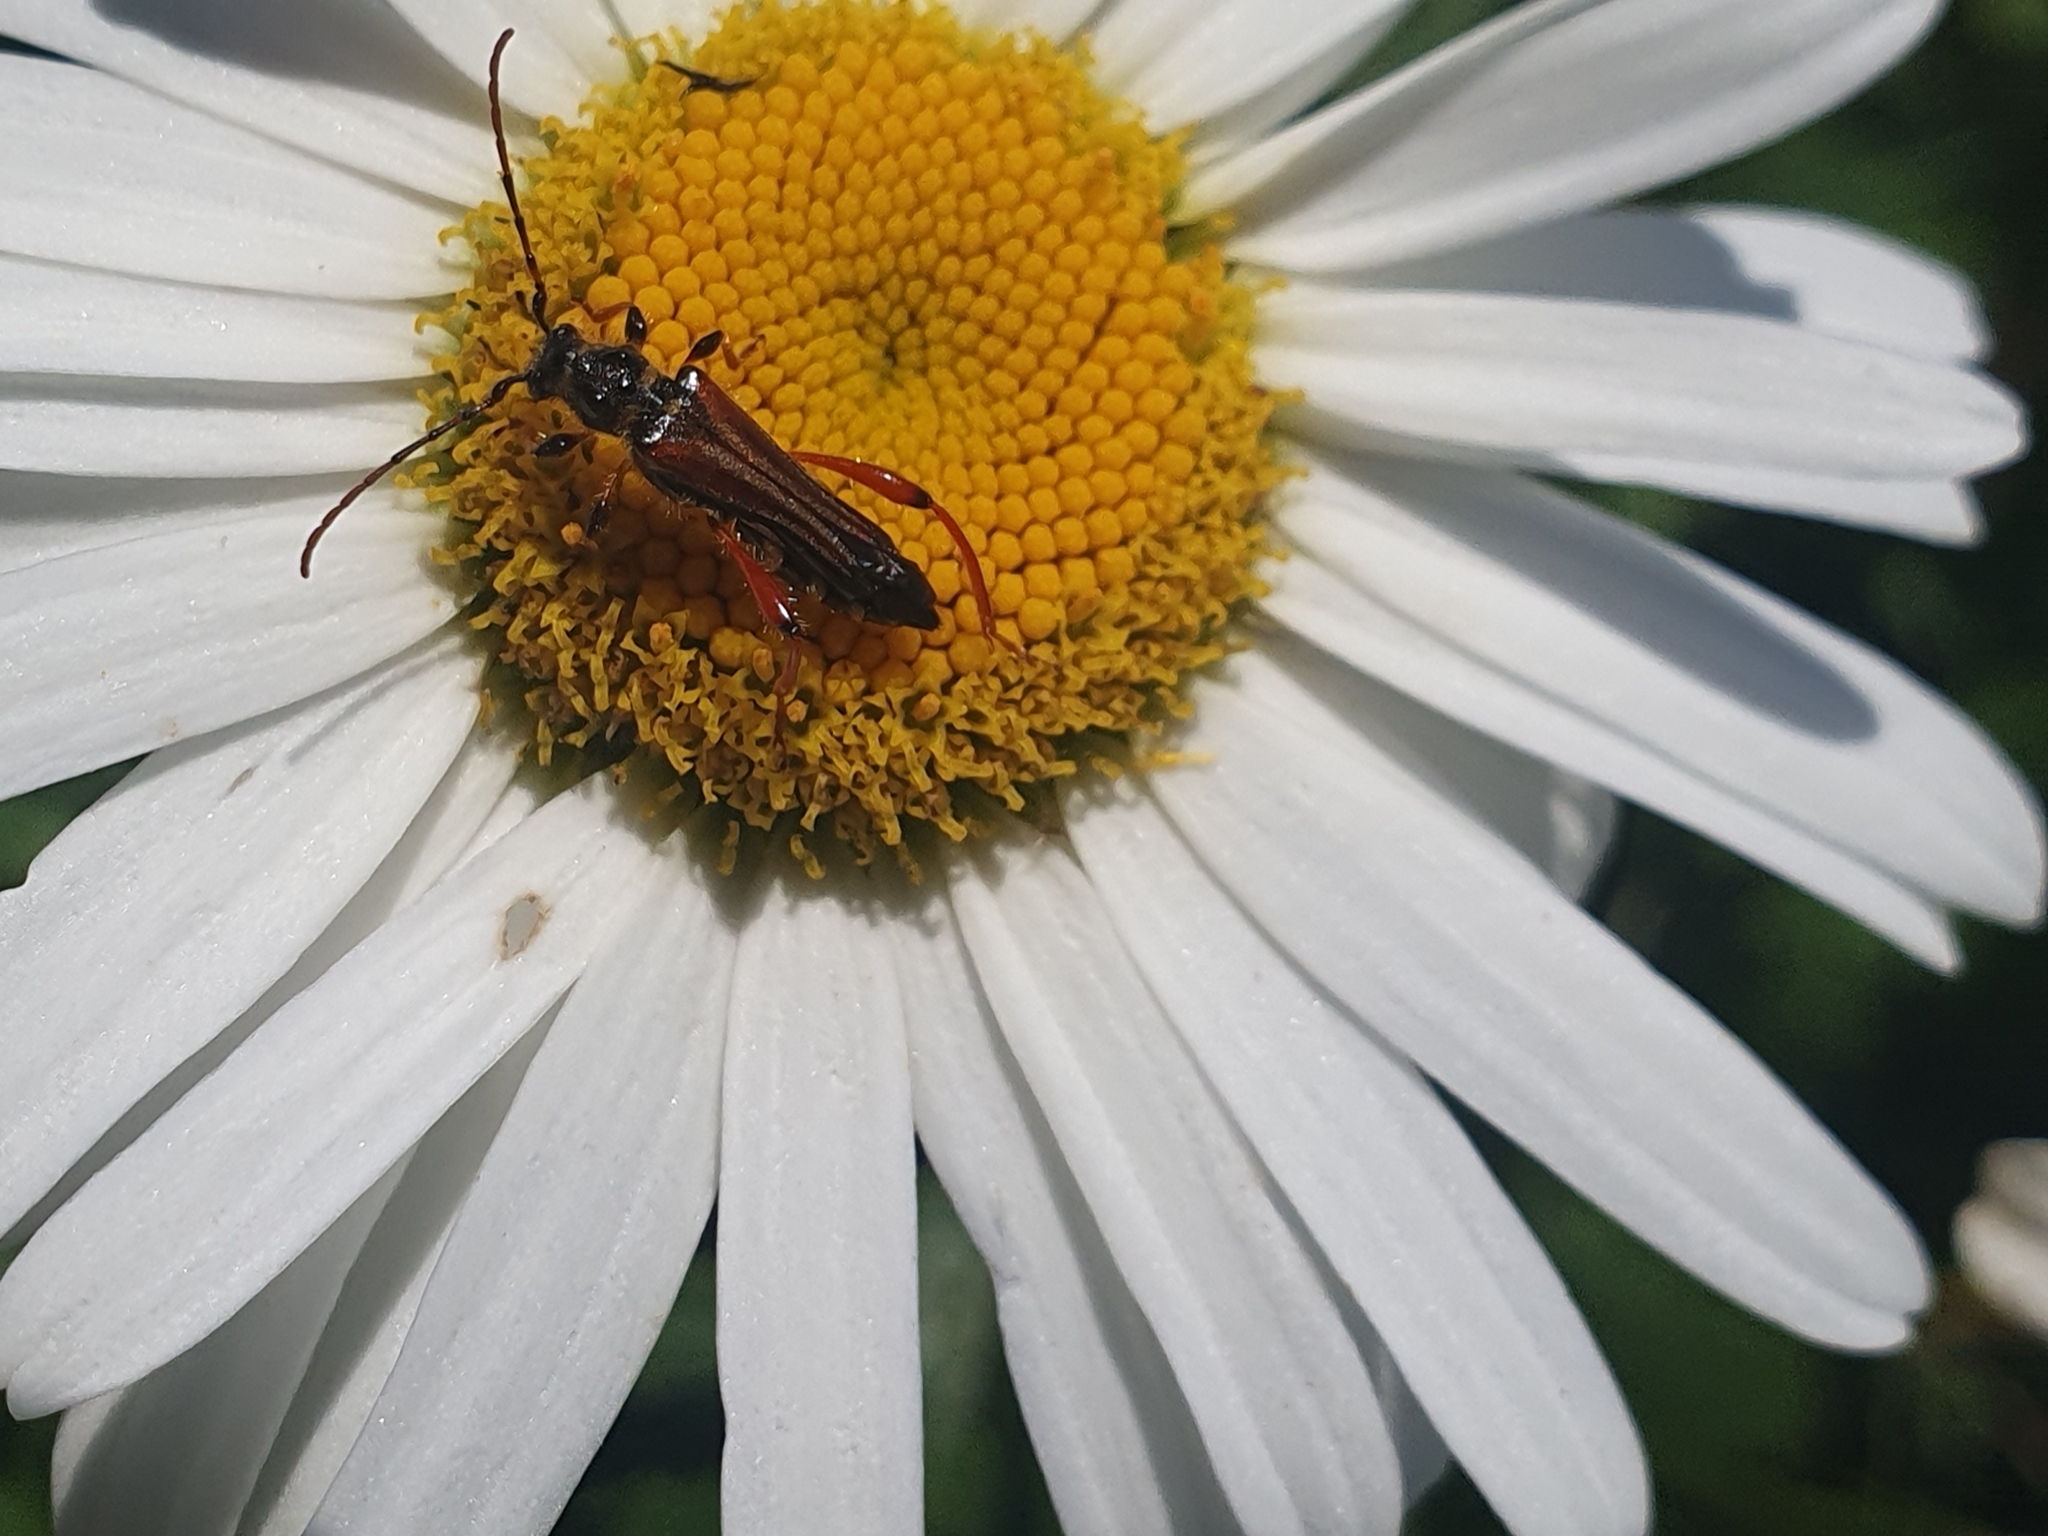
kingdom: Animalia
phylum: Arthropoda
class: Insecta
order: Coleoptera
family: Cerambycidae
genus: Stenopterus
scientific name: Stenopterus rufus
